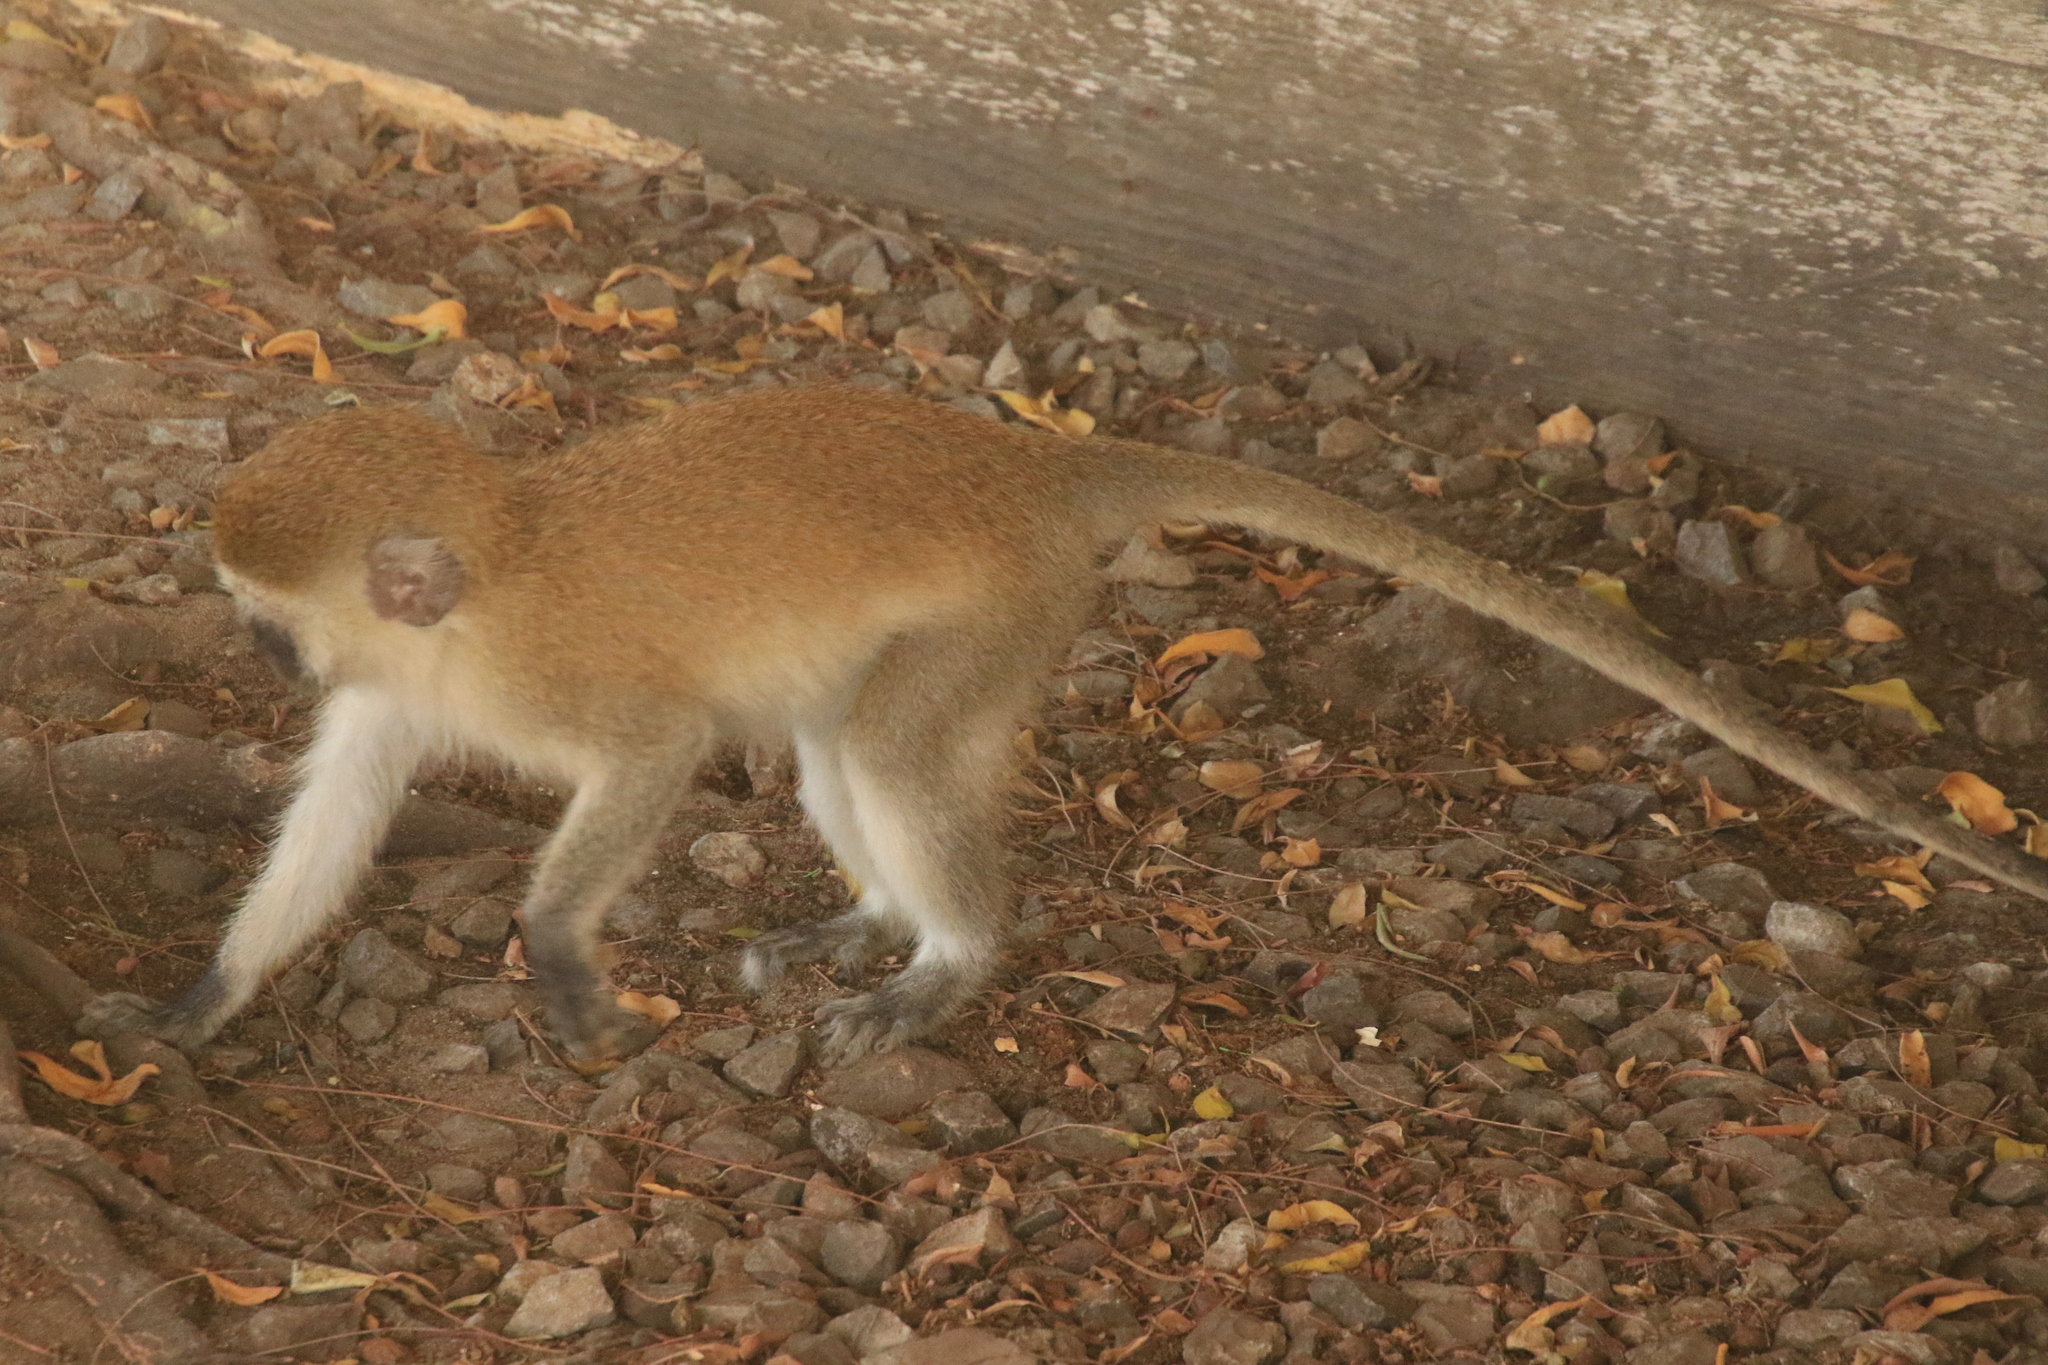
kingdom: Animalia
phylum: Chordata
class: Mammalia
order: Primates
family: Cercopithecidae
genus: Chlorocebus
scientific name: Chlorocebus pygerythrus
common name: Vervet monkey
